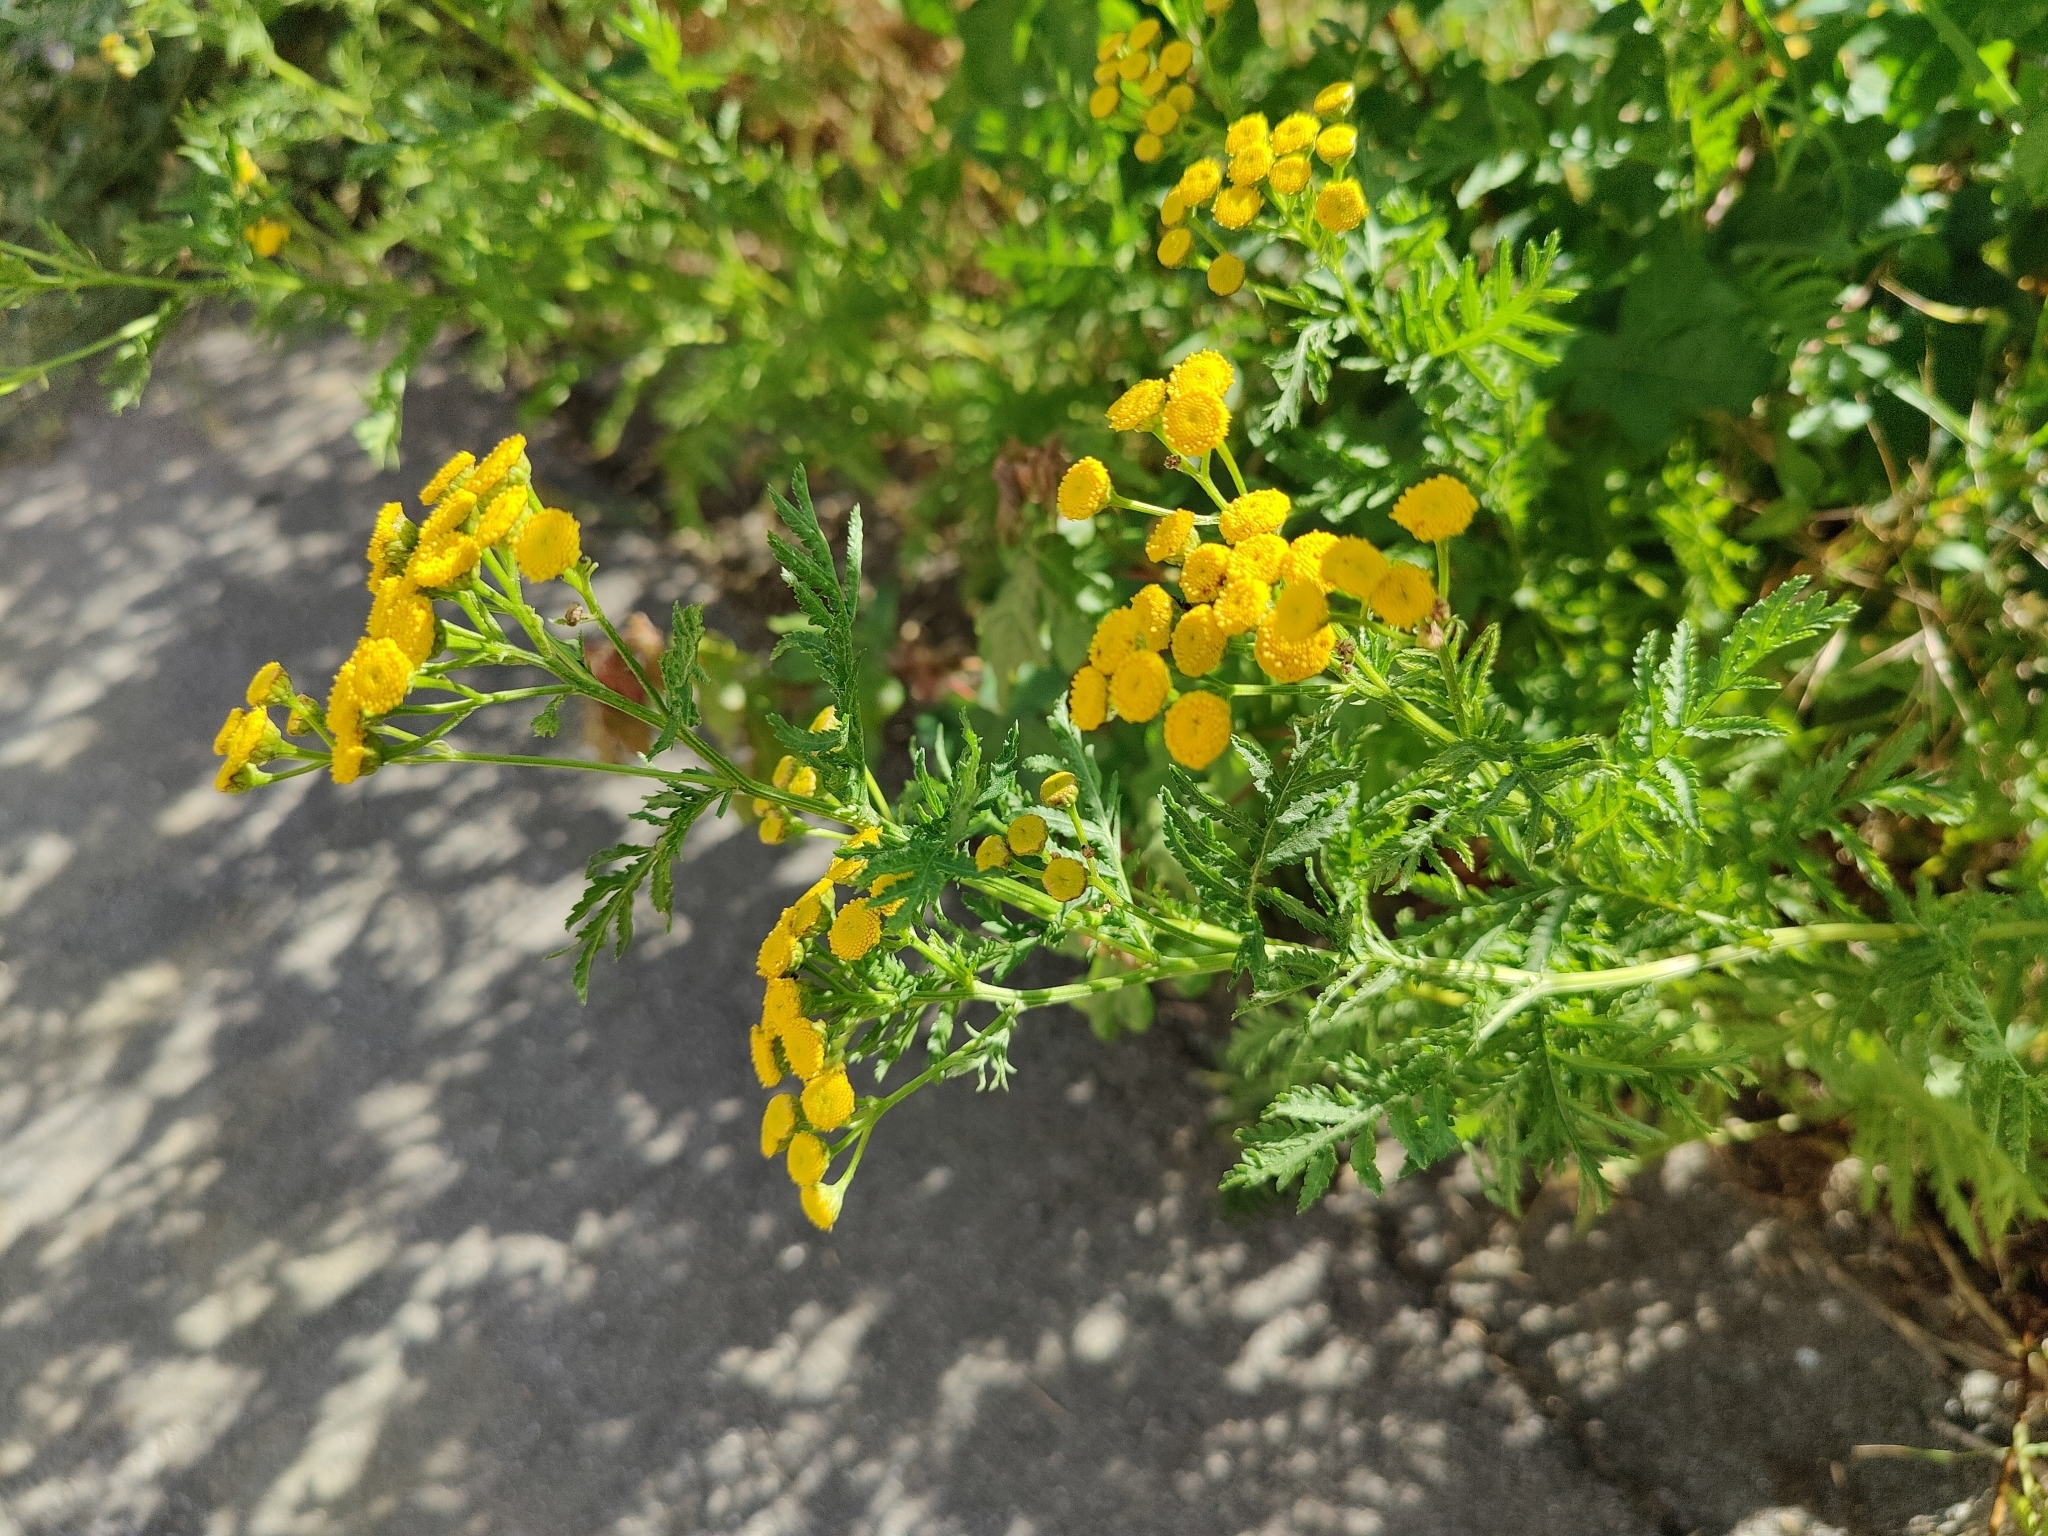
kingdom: Plantae
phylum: Tracheophyta
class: Magnoliopsida
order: Asterales
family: Asteraceae
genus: Tanacetum
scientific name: Tanacetum vulgare
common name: Common tansy
